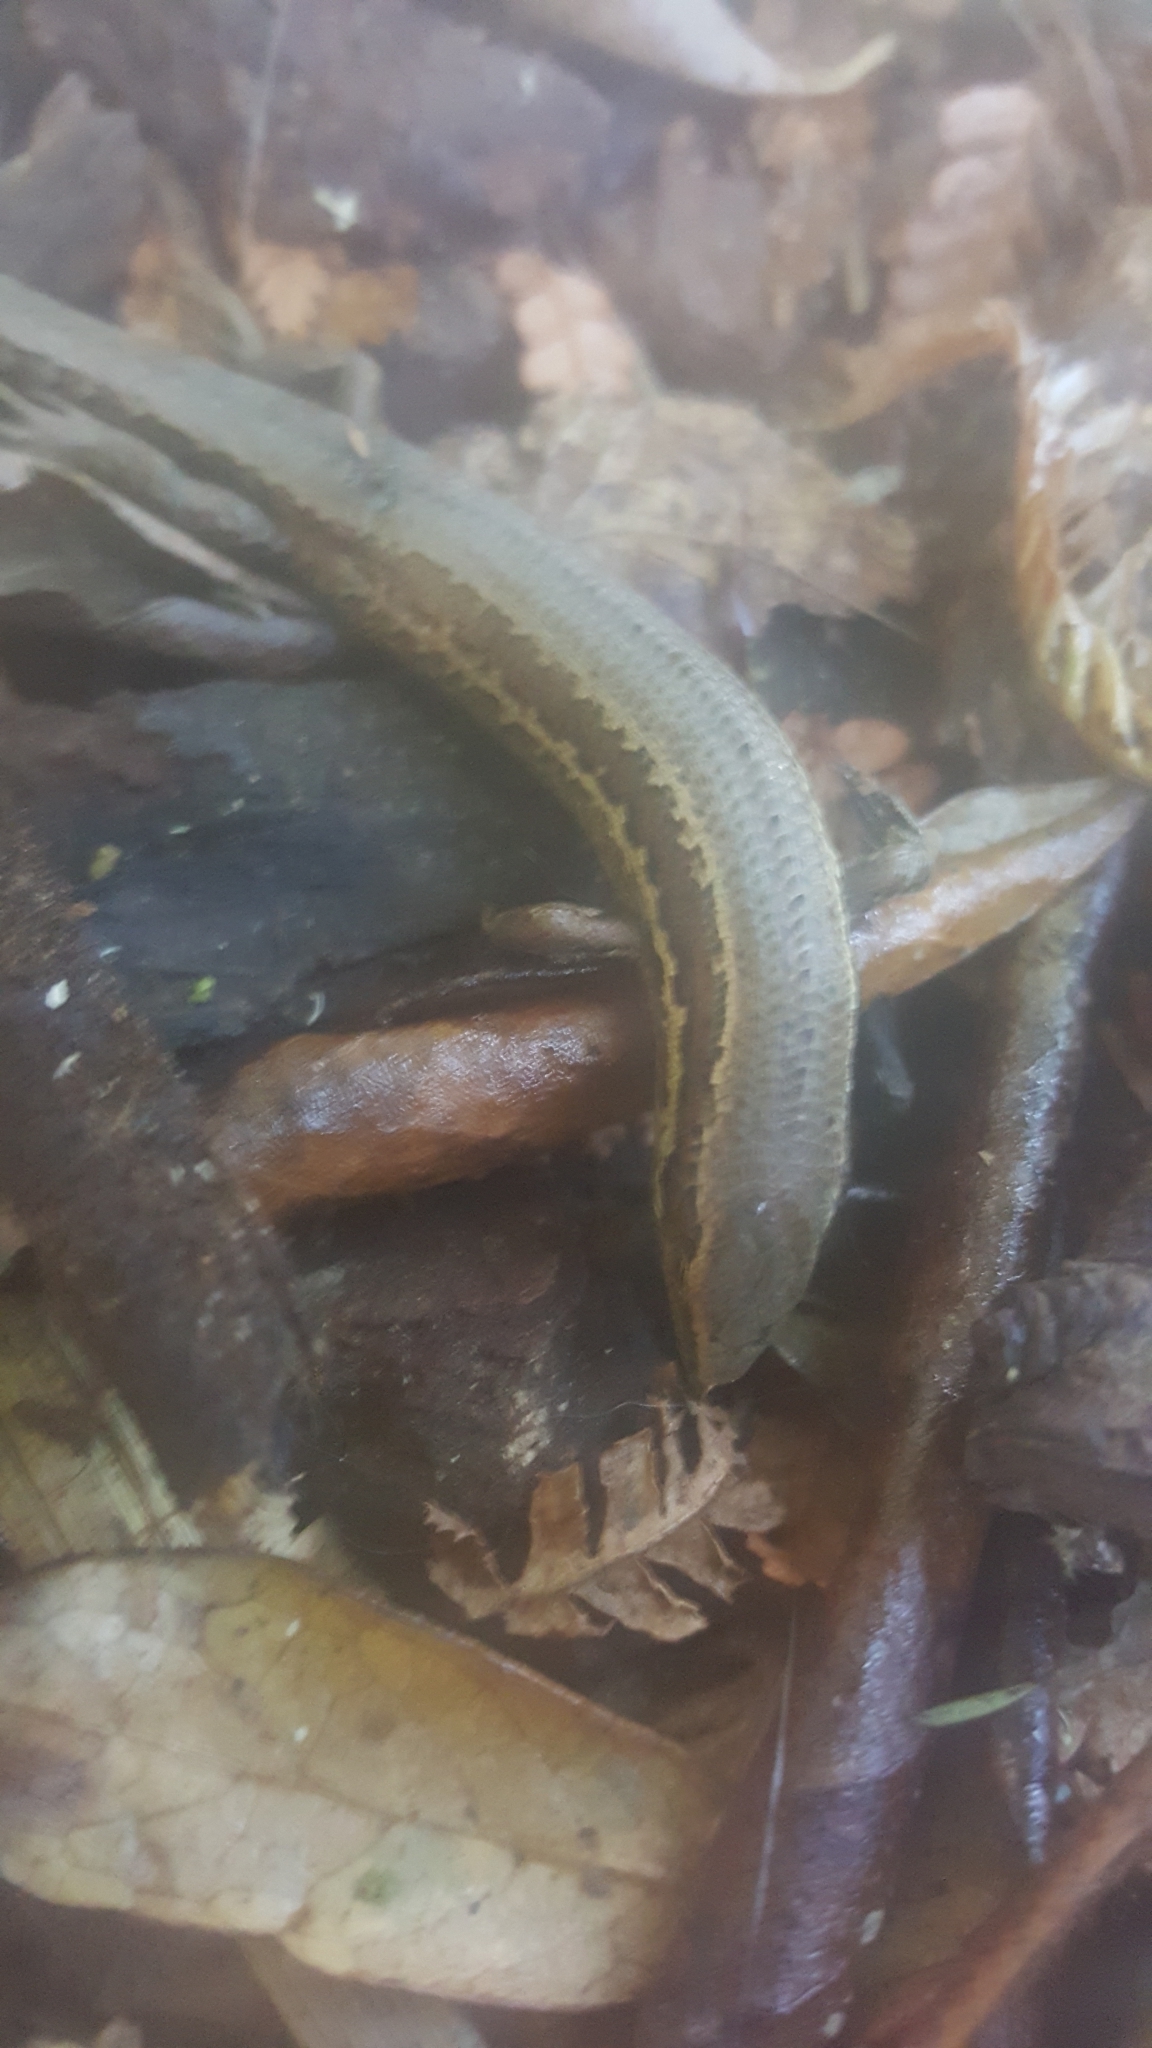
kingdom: Animalia
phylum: Chordata
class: Squamata
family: Scincidae
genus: Oligosoma
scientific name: Oligosoma polychroma
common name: Common new zealand skink
